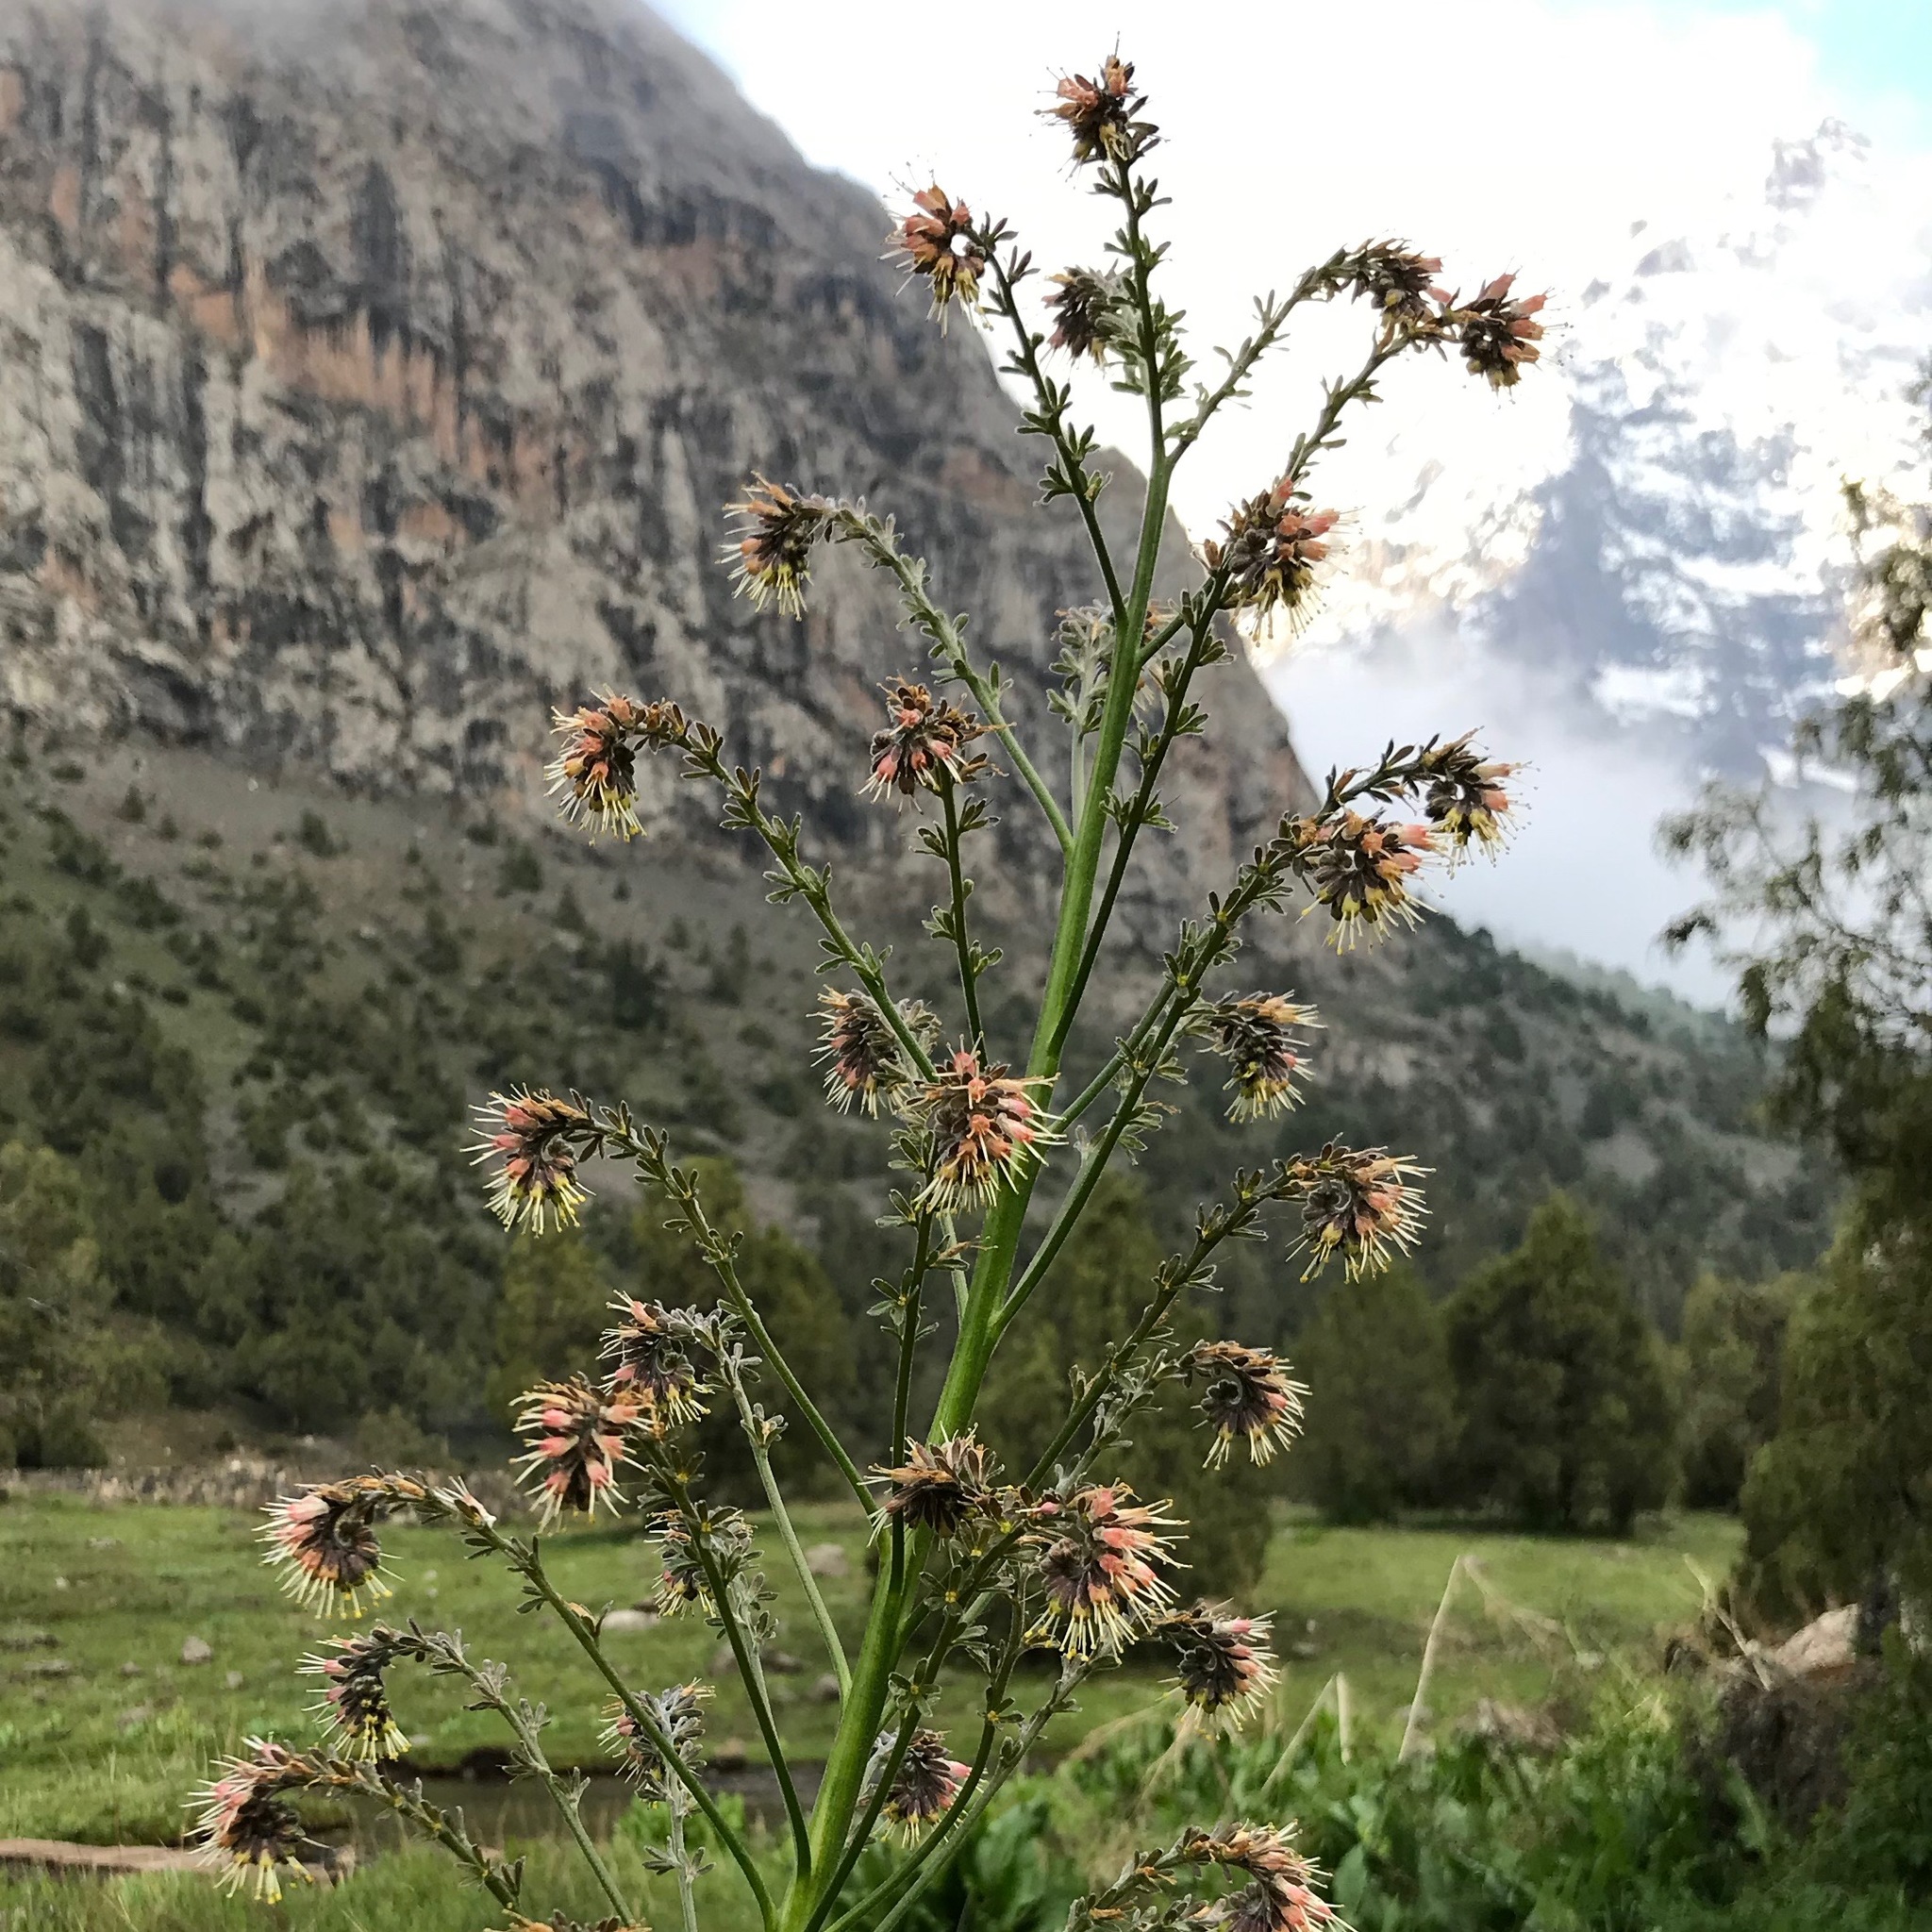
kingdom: Plantae
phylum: Tracheophyta
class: Magnoliopsida
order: Boraginales
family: Boraginaceae
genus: Solenanthus
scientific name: Solenanthus circinnatus
